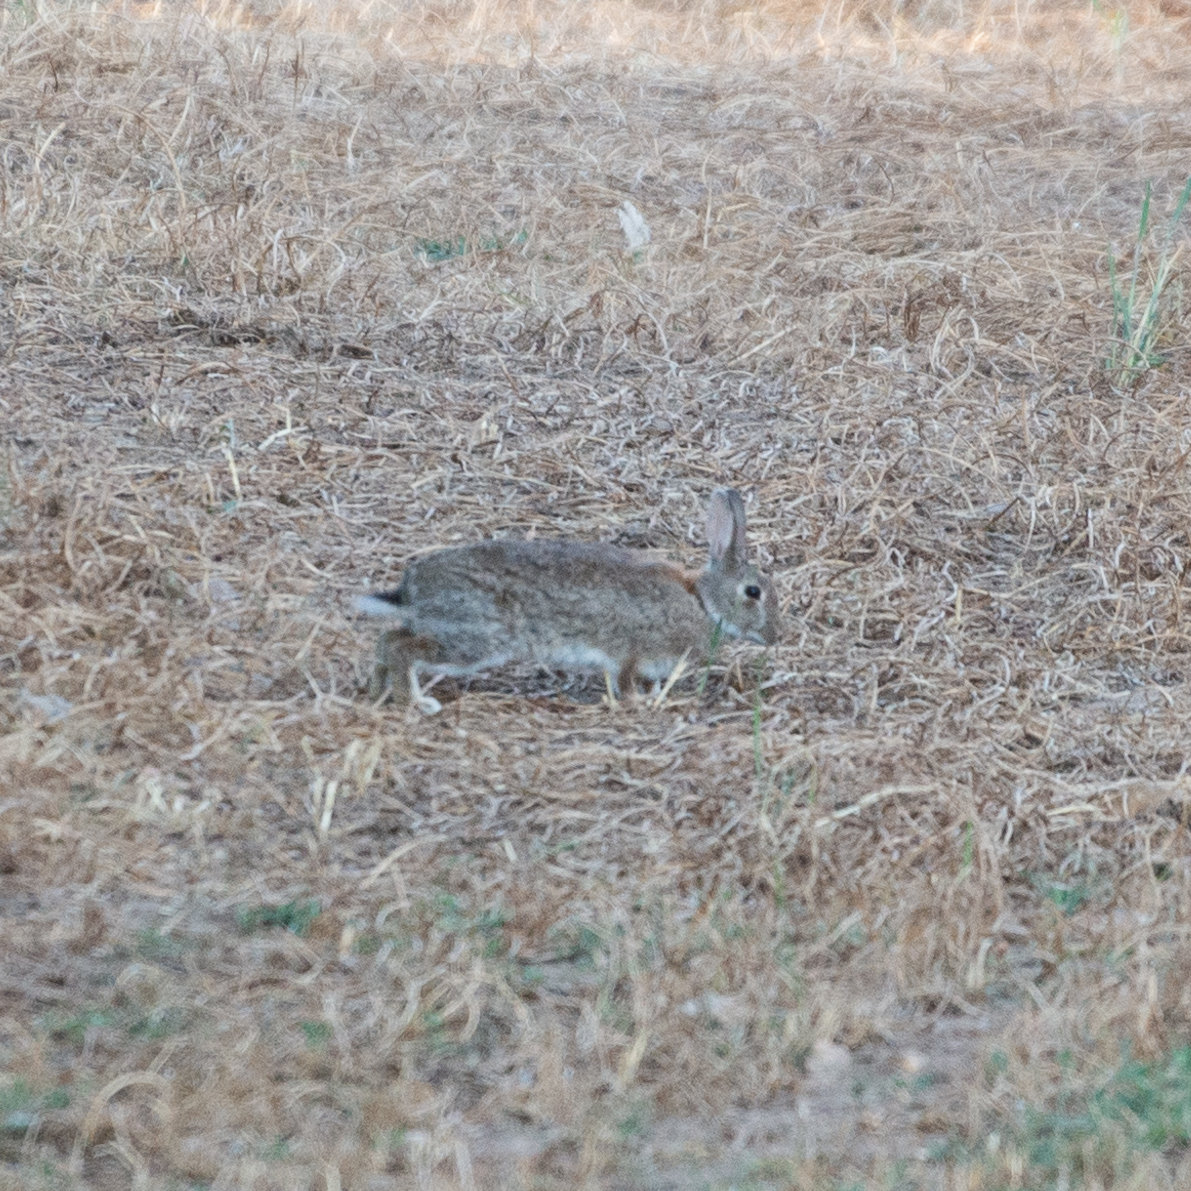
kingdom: Animalia
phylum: Chordata
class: Mammalia
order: Lagomorpha
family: Leporidae
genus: Oryctolagus
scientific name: Oryctolagus cuniculus
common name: European rabbit
